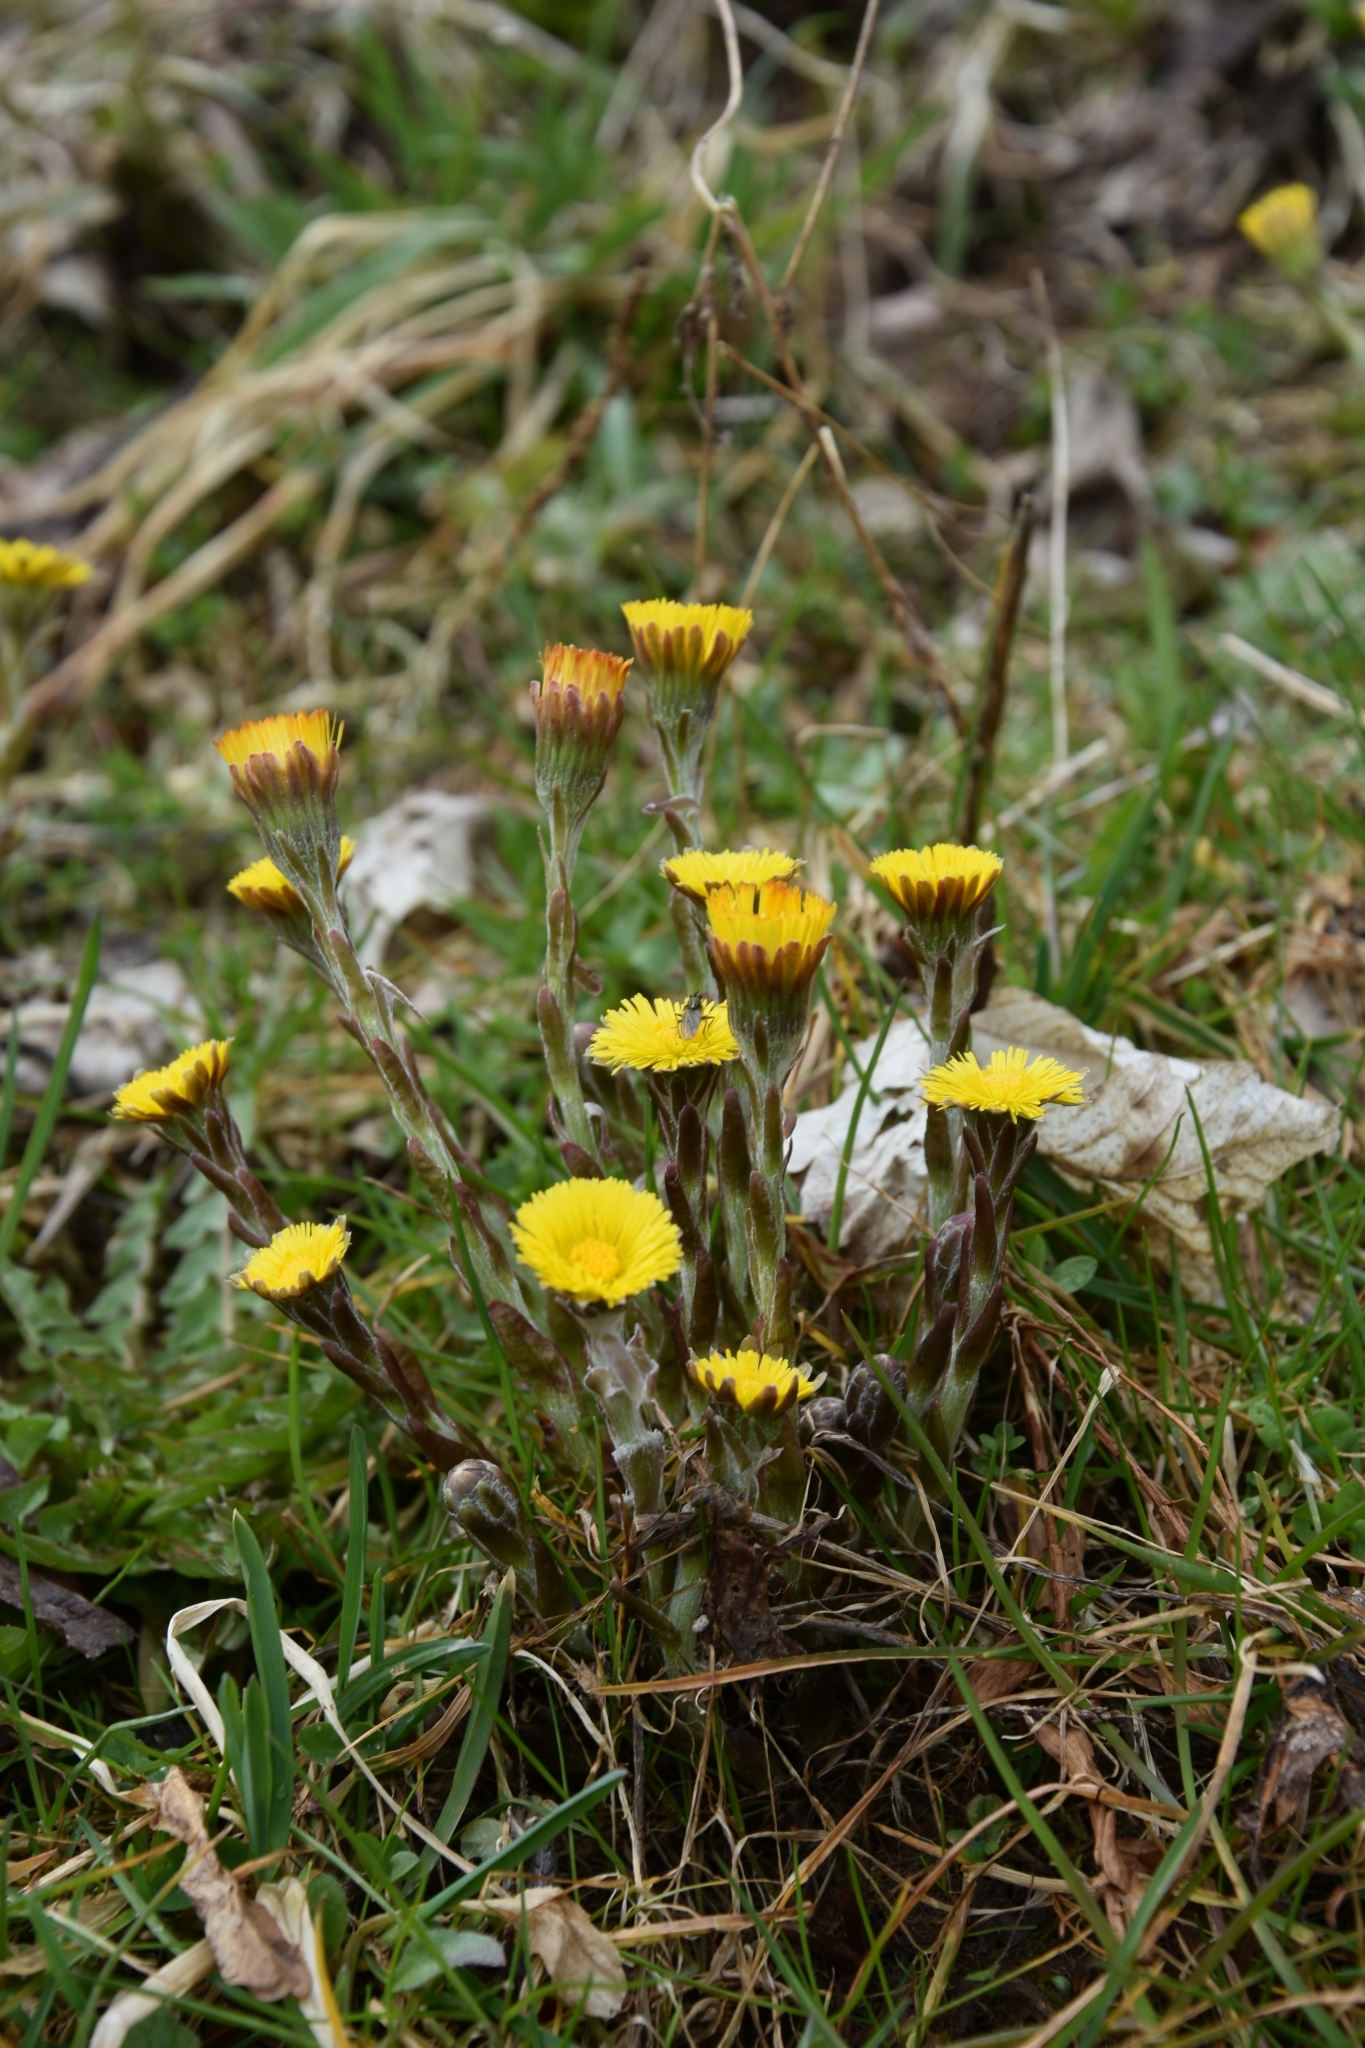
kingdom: Plantae
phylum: Tracheophyta
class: Magnoliopsida
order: Asterales
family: Asteraceae
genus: Tussilago
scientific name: Tussilago farfara
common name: Coltsfoot
